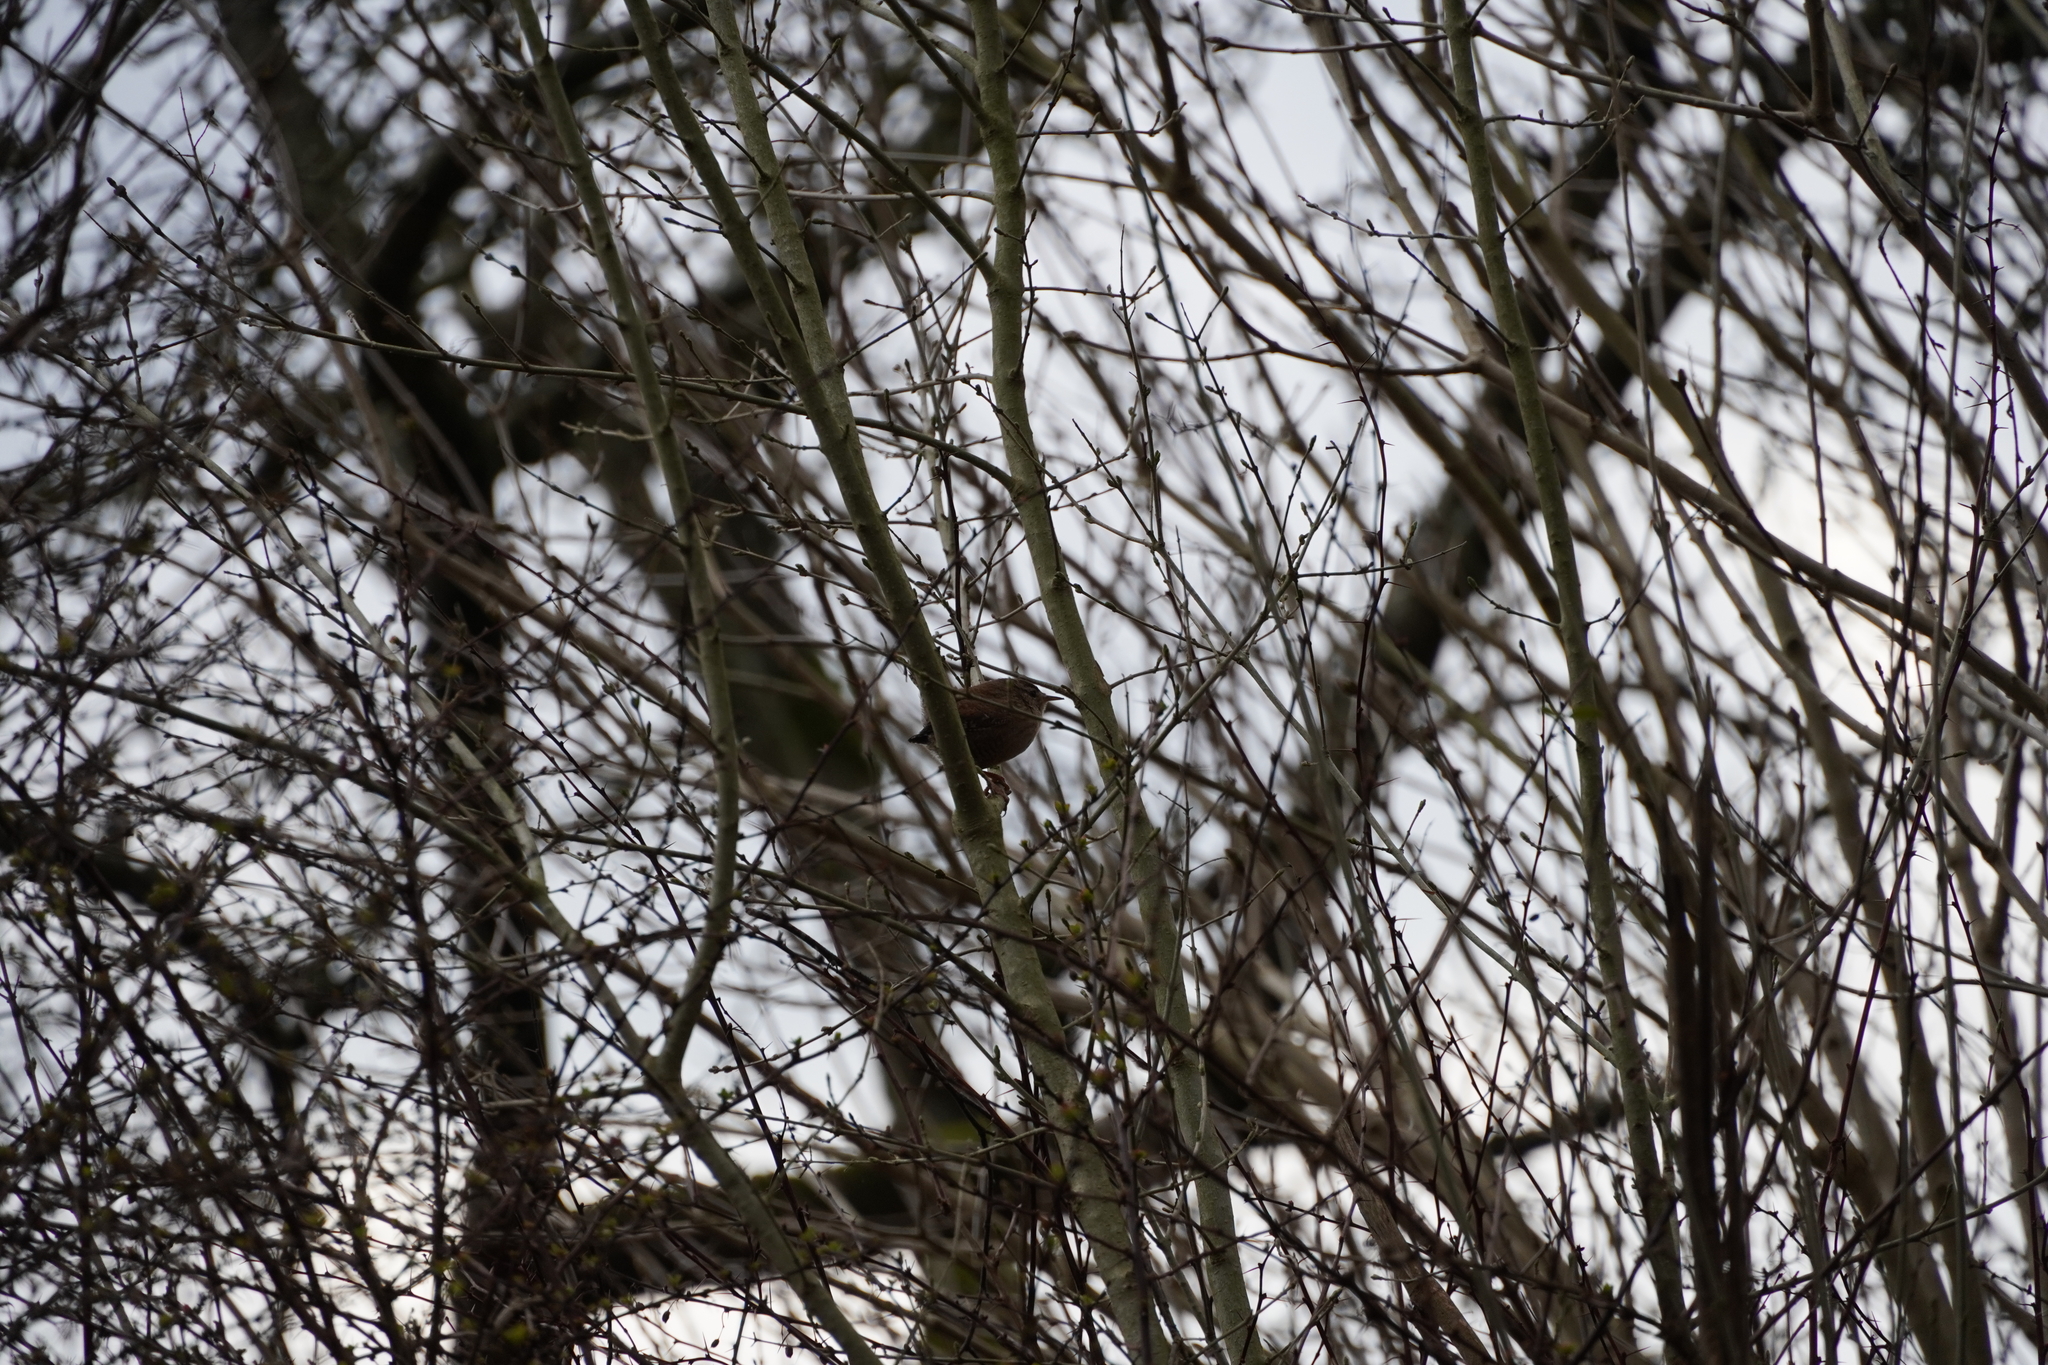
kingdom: Animalia
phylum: Chordata
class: Aves
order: Passeriformes
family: Troglodytidae
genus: Troglodytes
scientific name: Troglodytes troglodytes
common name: Eurasian wren
